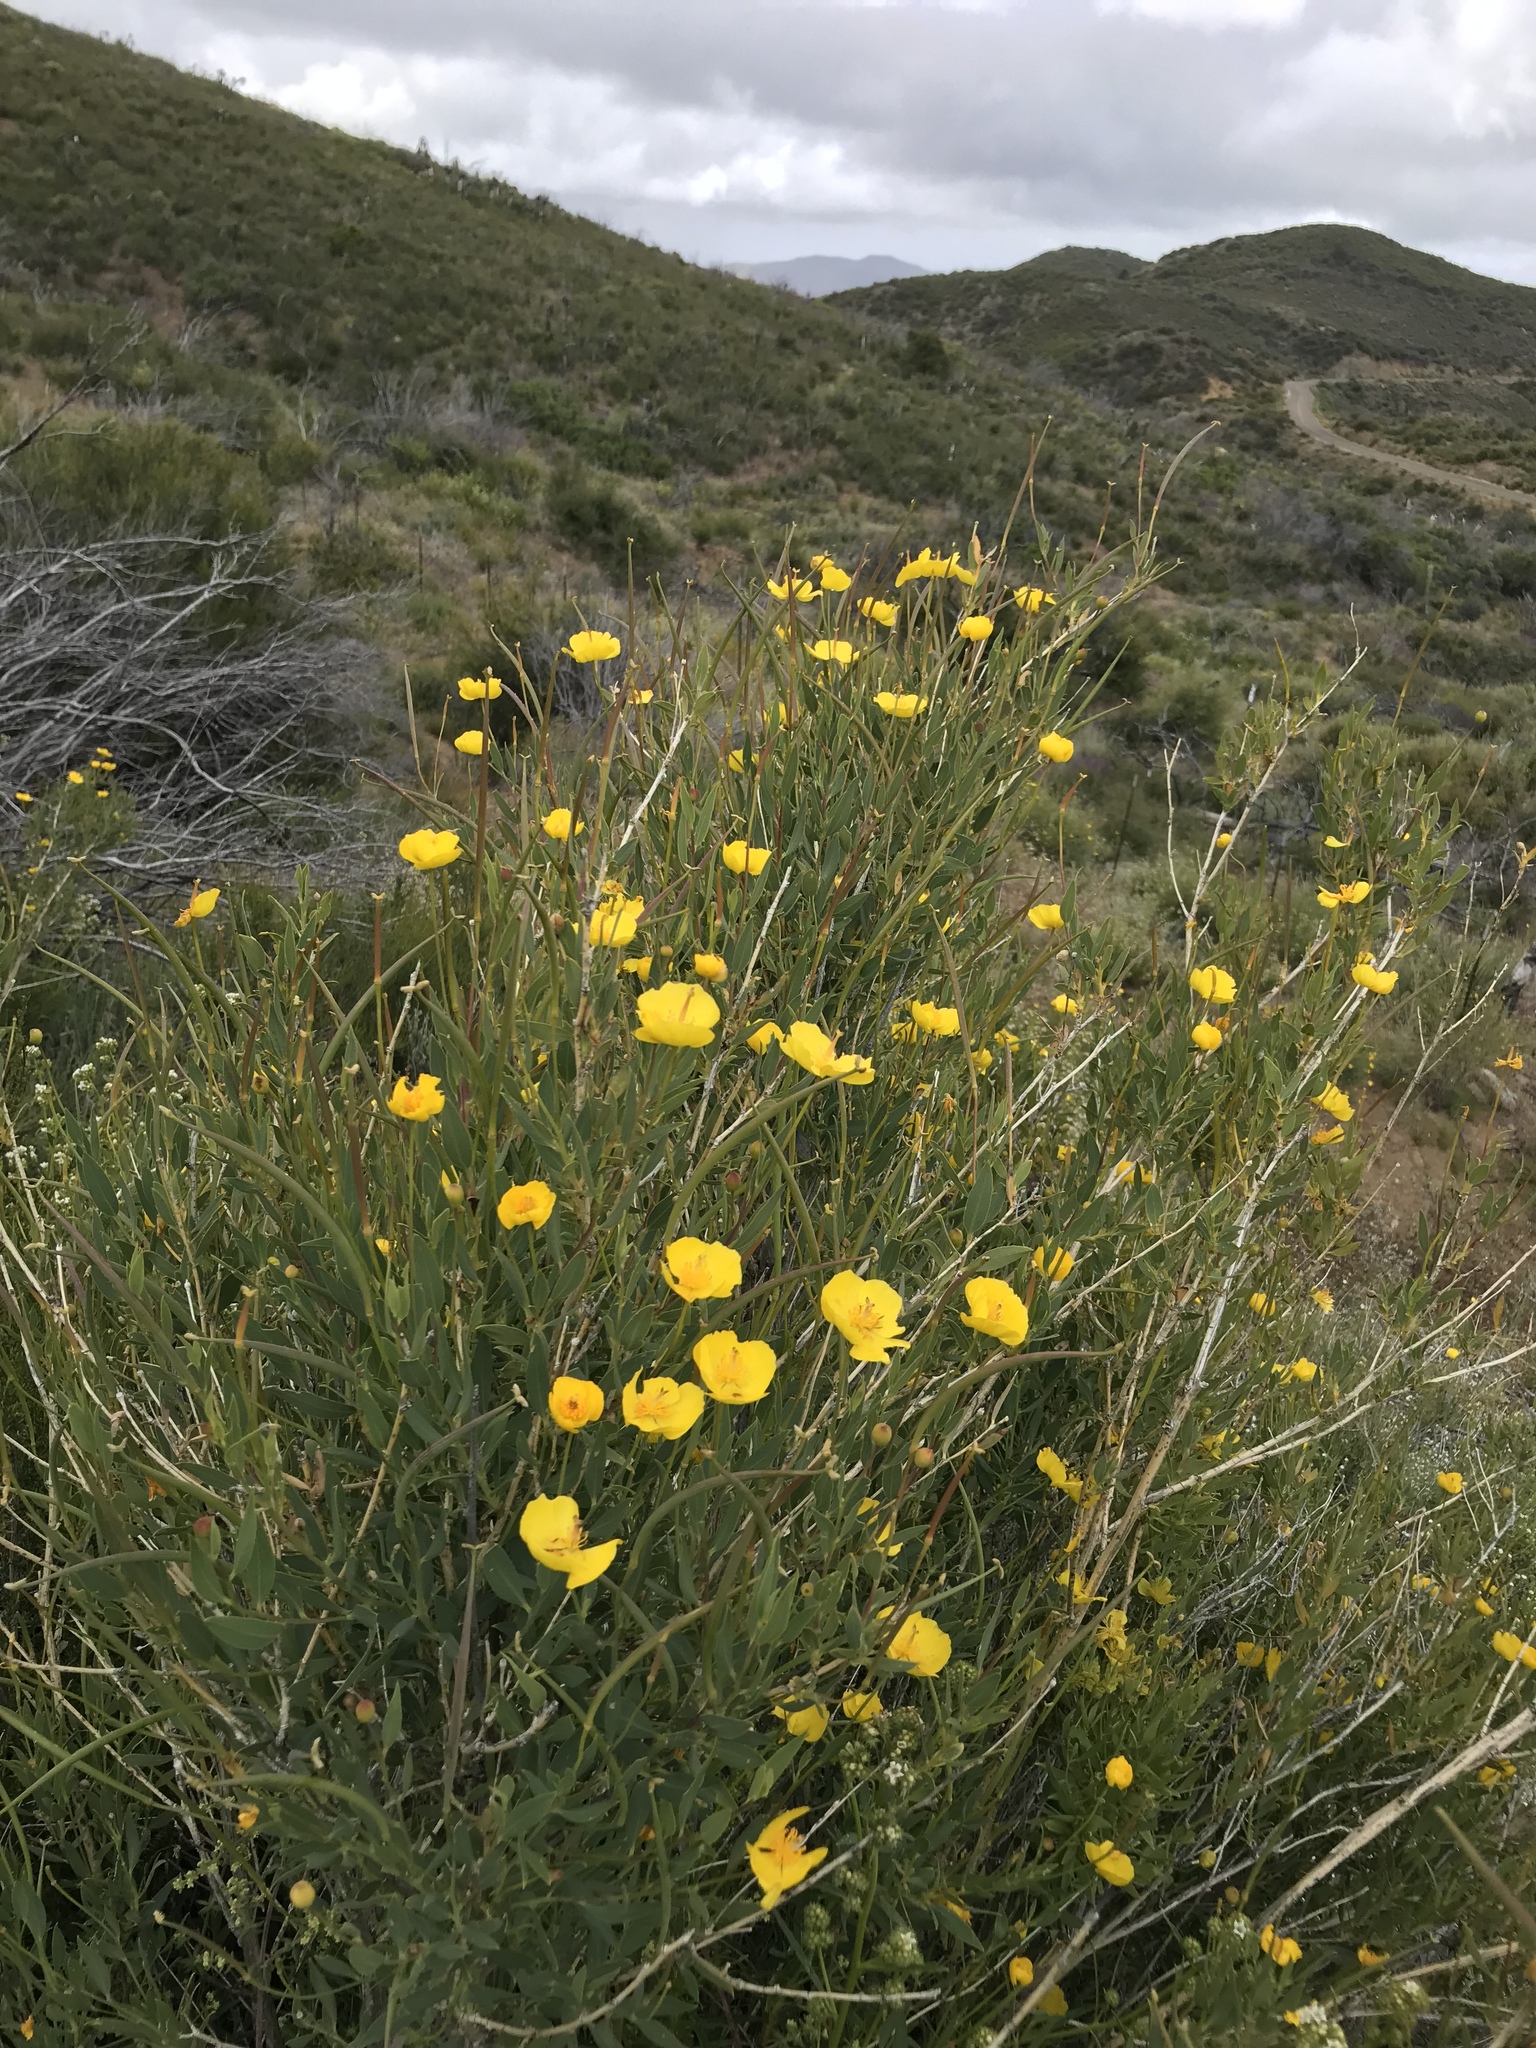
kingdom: Plantae
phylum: Tracheophyta
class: Magnoliopsida
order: Ranunculales
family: Papaveraceae
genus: Dendromecon
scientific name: Dendromecon rigida
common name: Tree poppy
